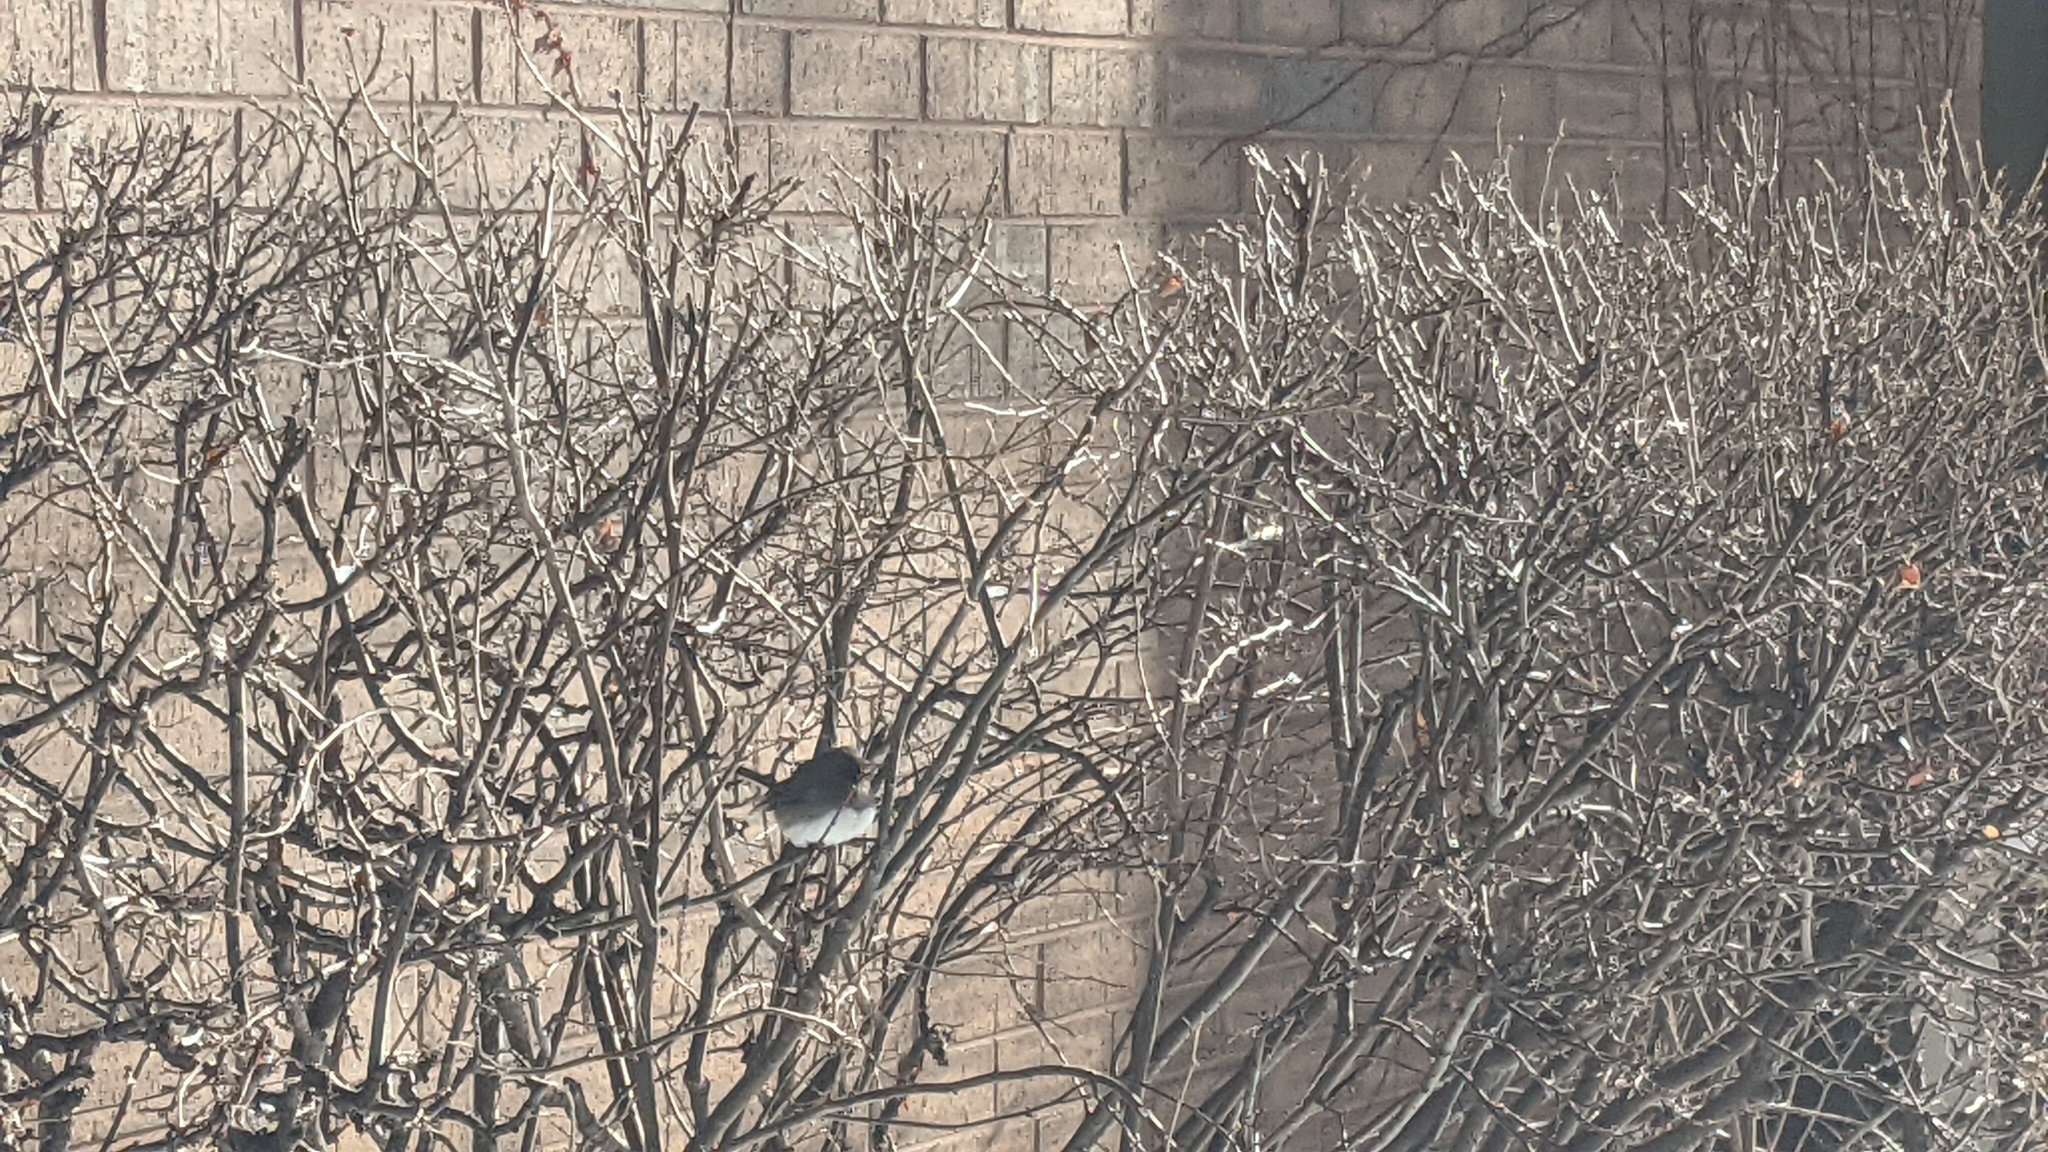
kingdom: Animalia
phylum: Chordata
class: Aves
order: Passeriformes
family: Passerellidae
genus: Junco
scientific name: Junco hyemalis
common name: Dark-eyed junco
